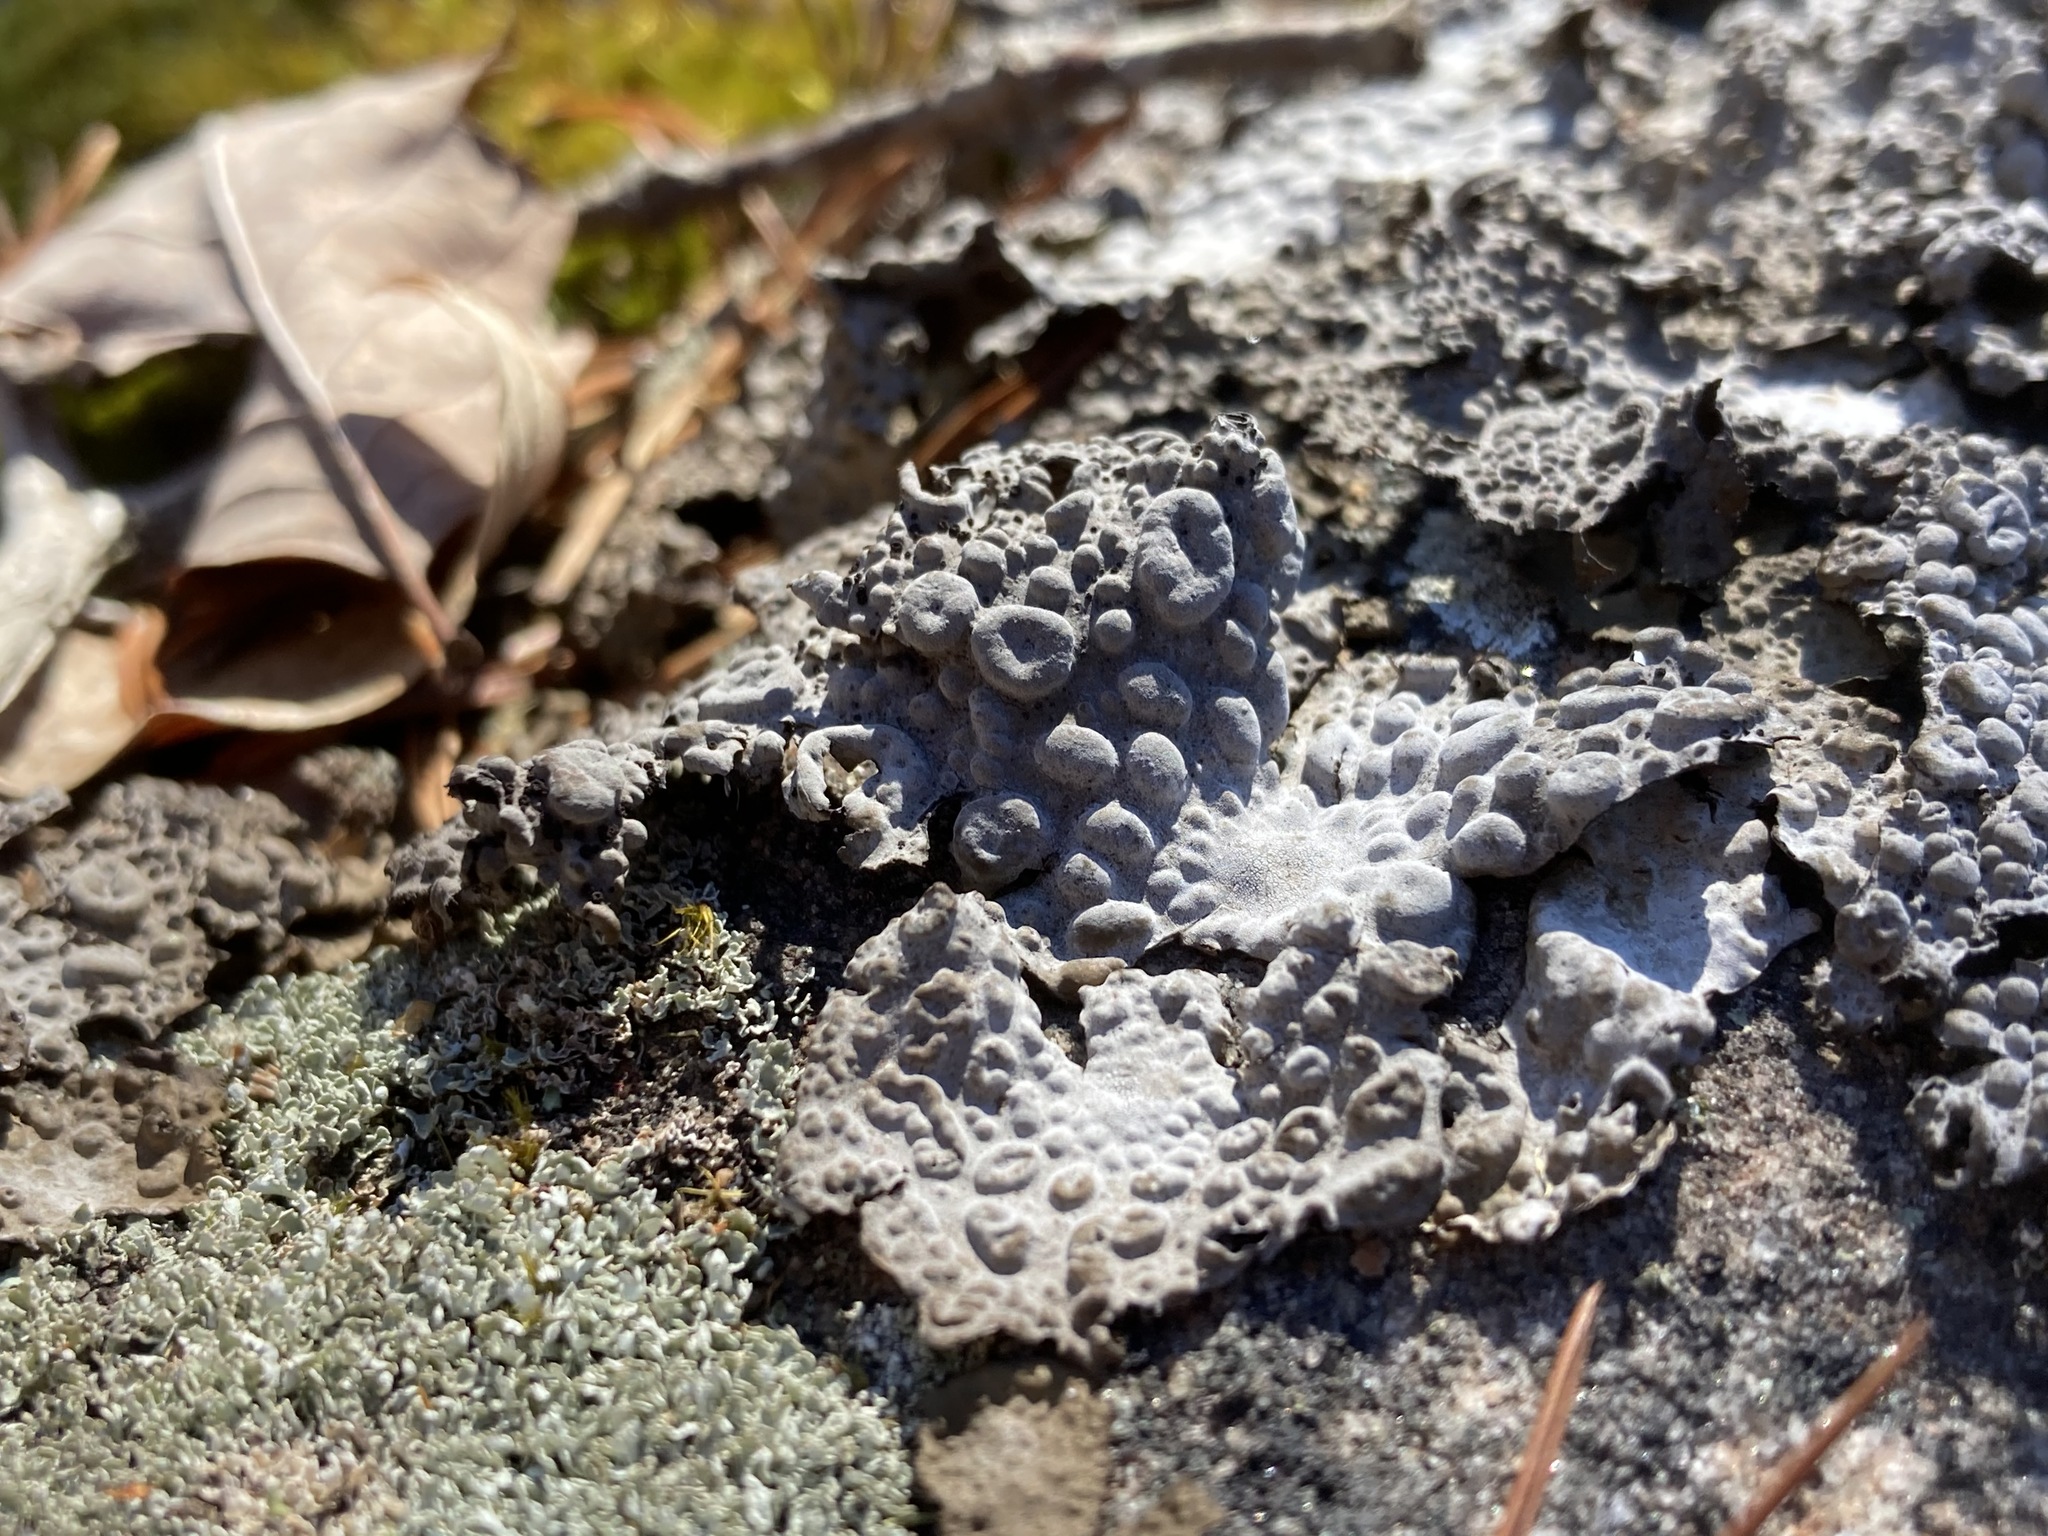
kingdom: Fungi
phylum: Ascomycota
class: Lecanoromycetes
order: Umbilicariales
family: Umbilicariaceae
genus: Lasallia
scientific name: Lasallia papulosa
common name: Common toadskin lichen
